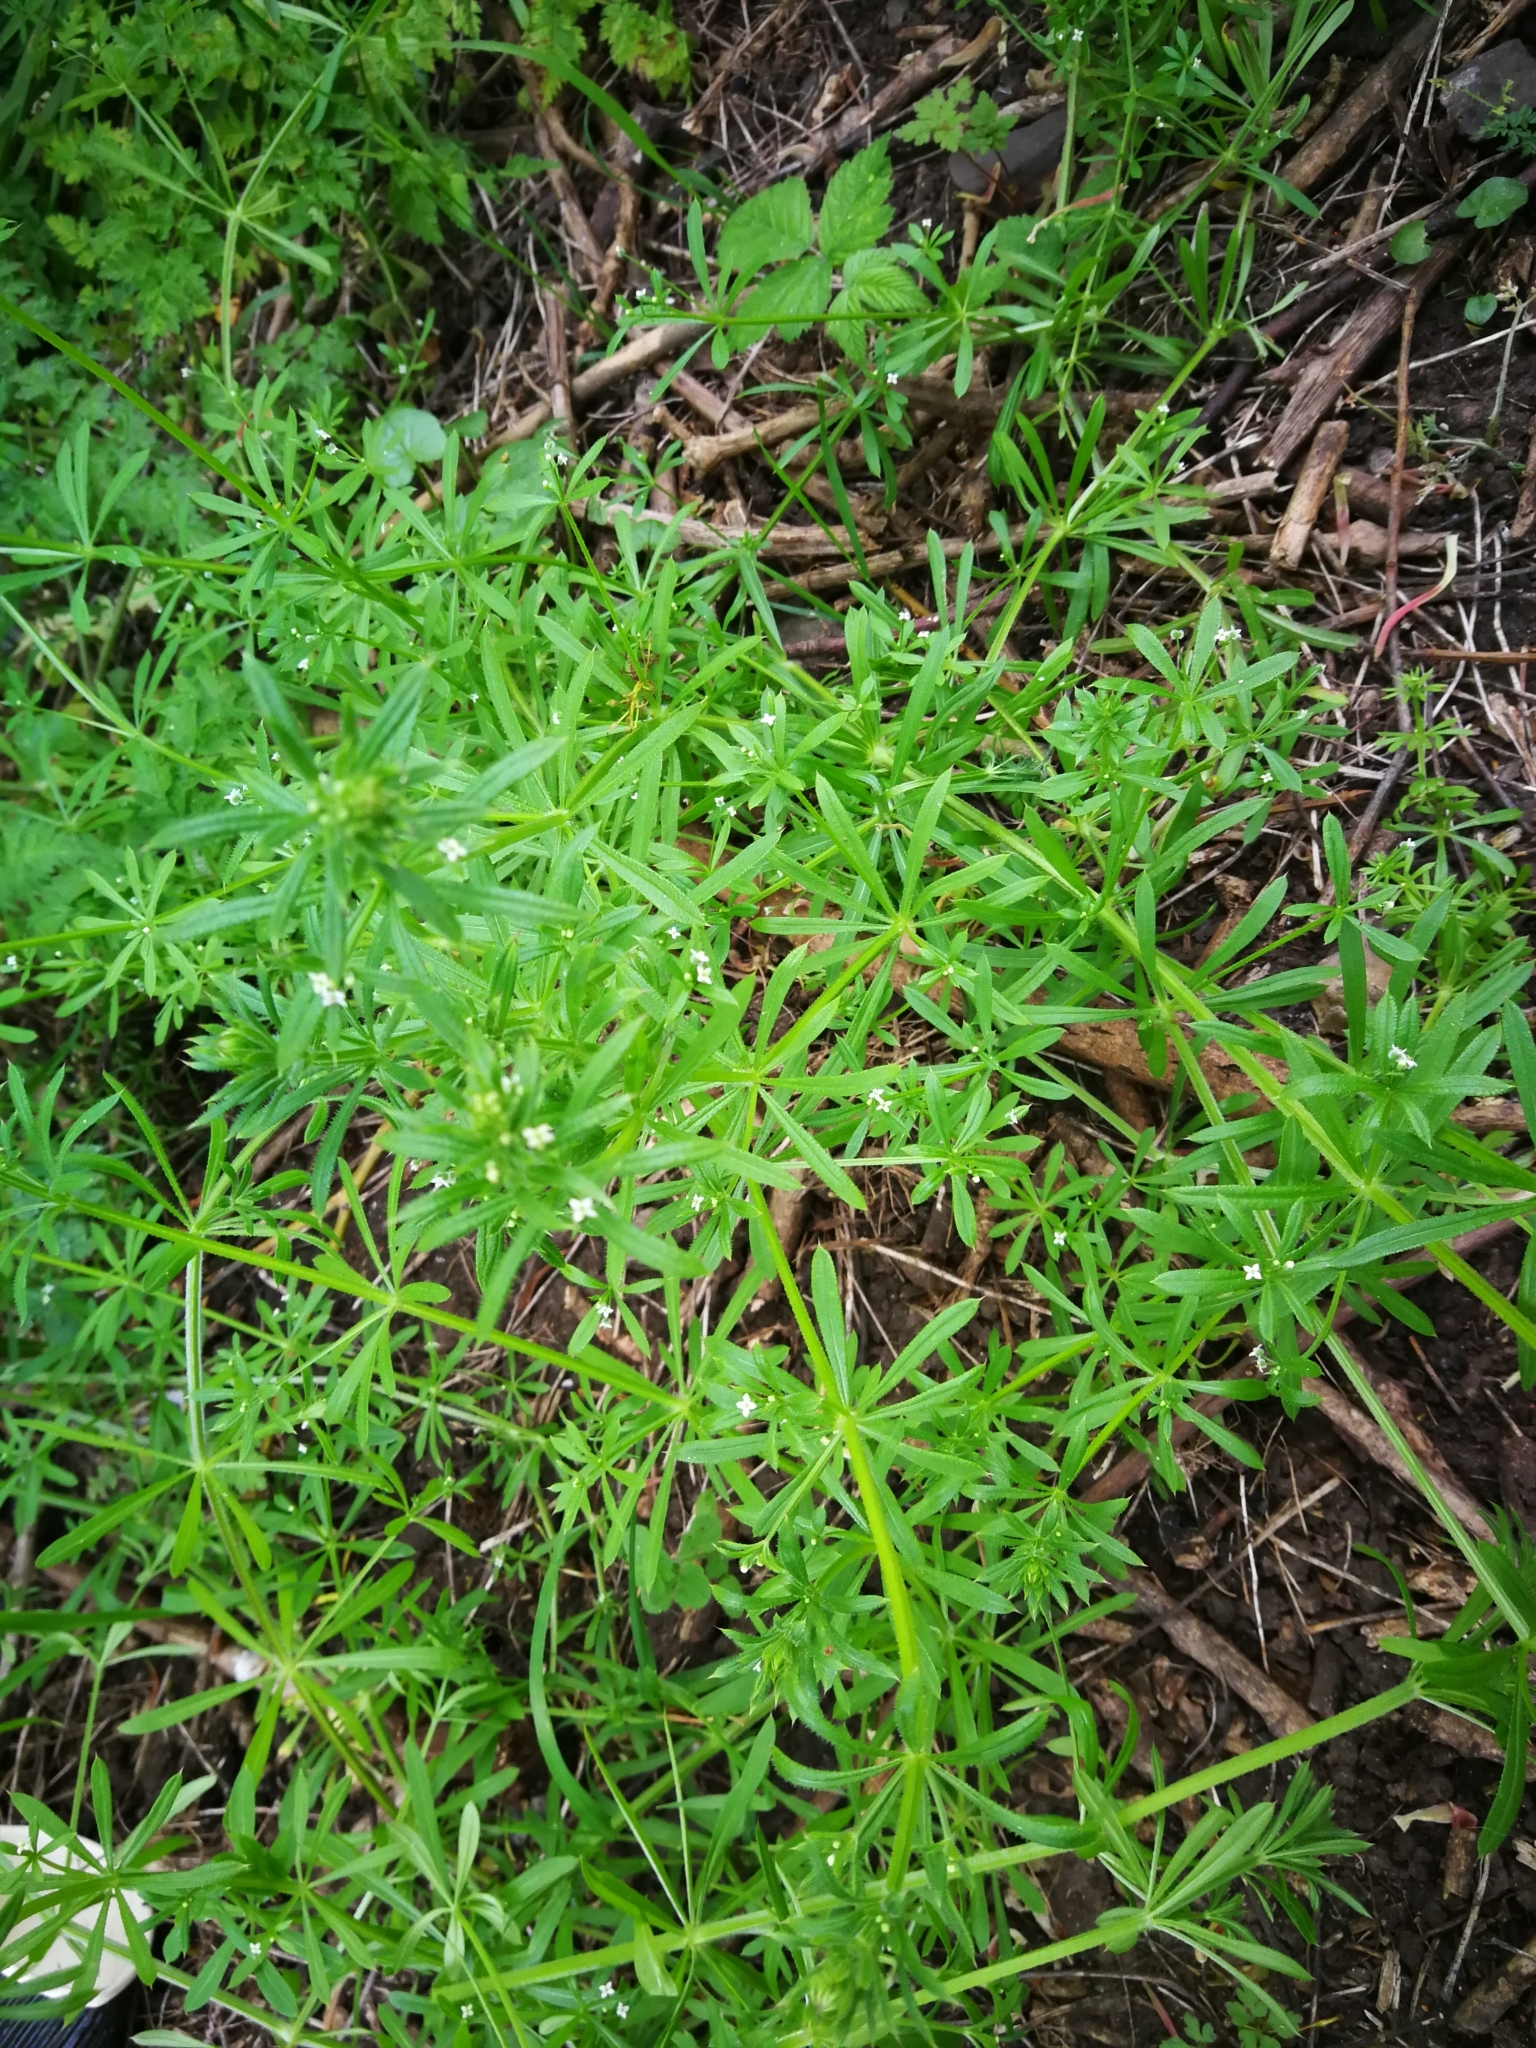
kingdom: Plantae
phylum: Tracheophyta
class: Magnoliopsida
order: Gentianales
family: Rubiaceae
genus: Galium
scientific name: Galium aparine
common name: Cleavers
